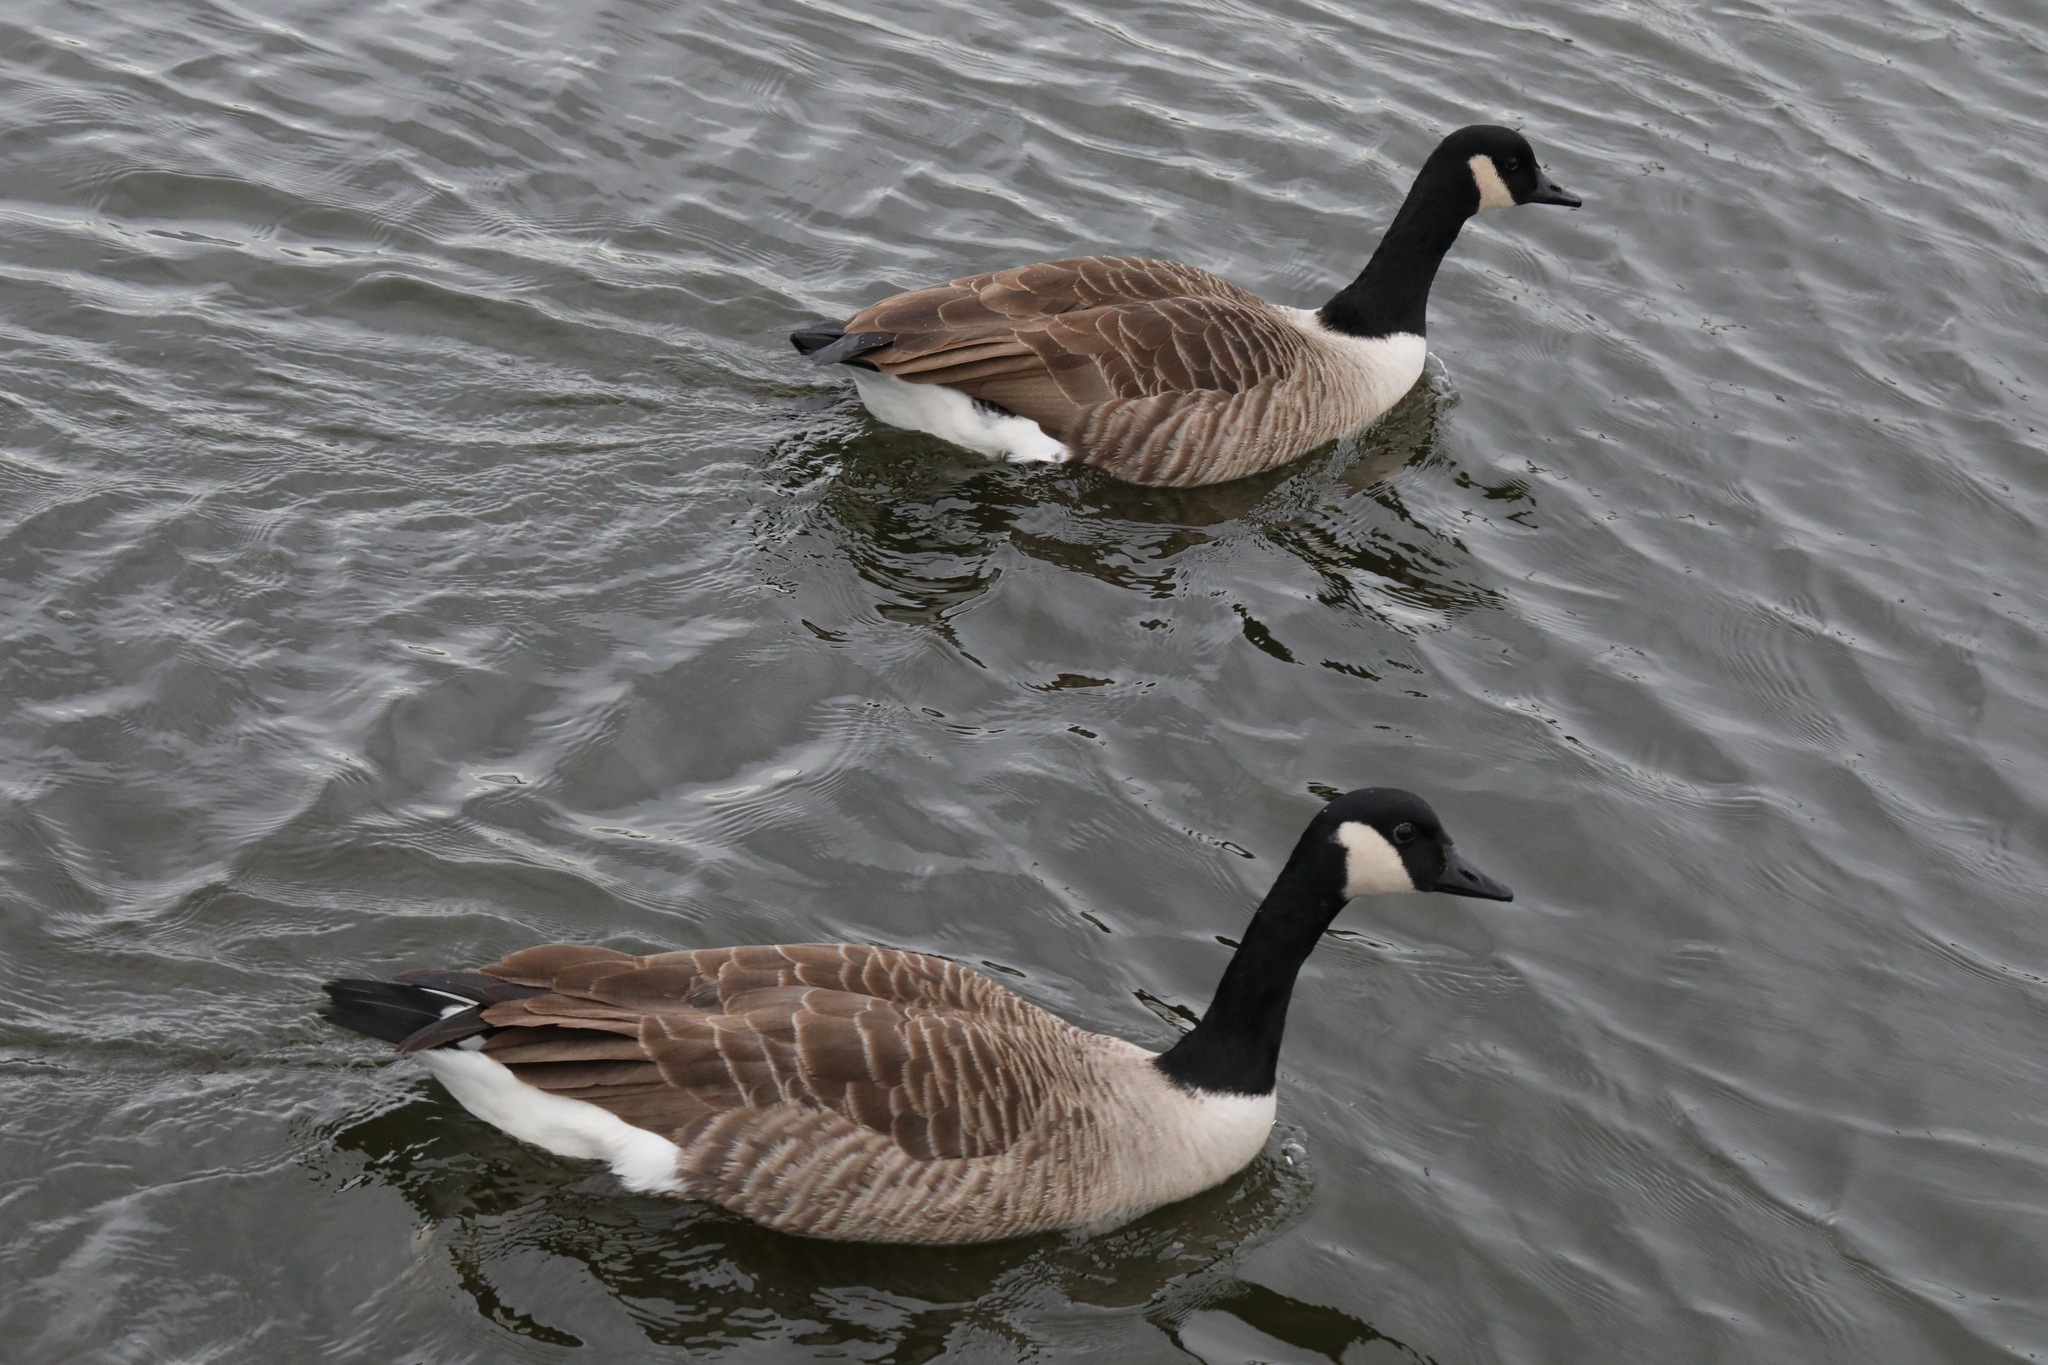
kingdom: Animalia
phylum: Chordata
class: Aves
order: Anseriformes
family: Anatidae
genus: Branta
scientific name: Branta canadensis
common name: Canada goose
